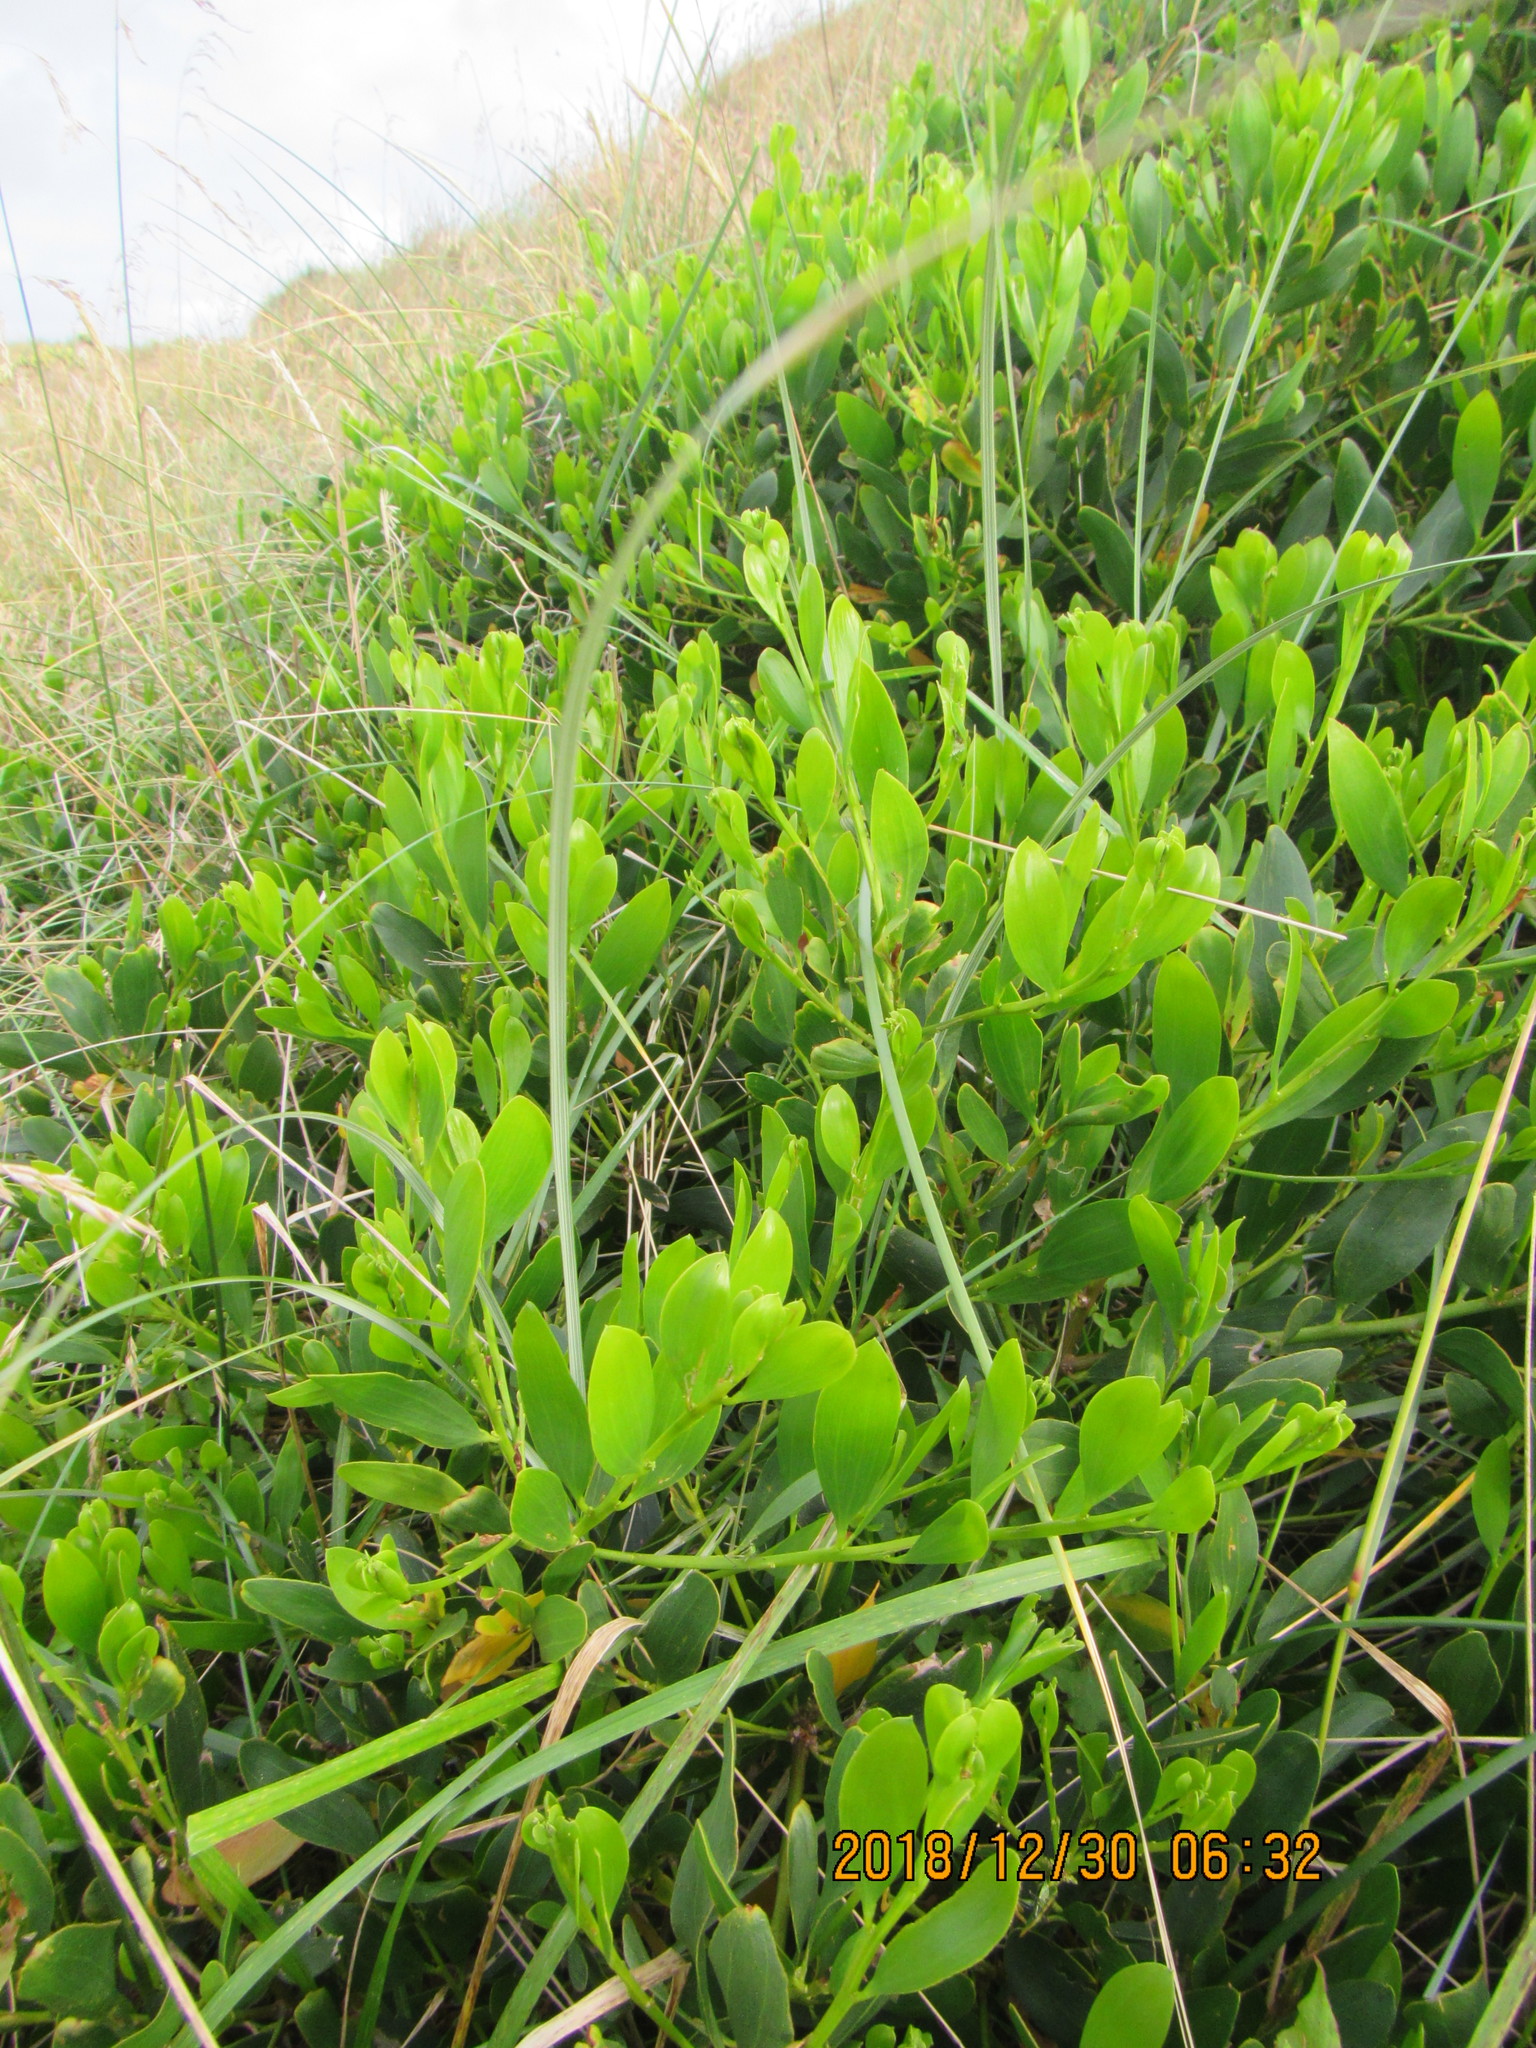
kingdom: Plantae
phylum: Tracheophyta
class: Magnoliopsida
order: Fabales
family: Fabaceae
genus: Acacia
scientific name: Acacia longifolia
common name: Sydney golden wattle
